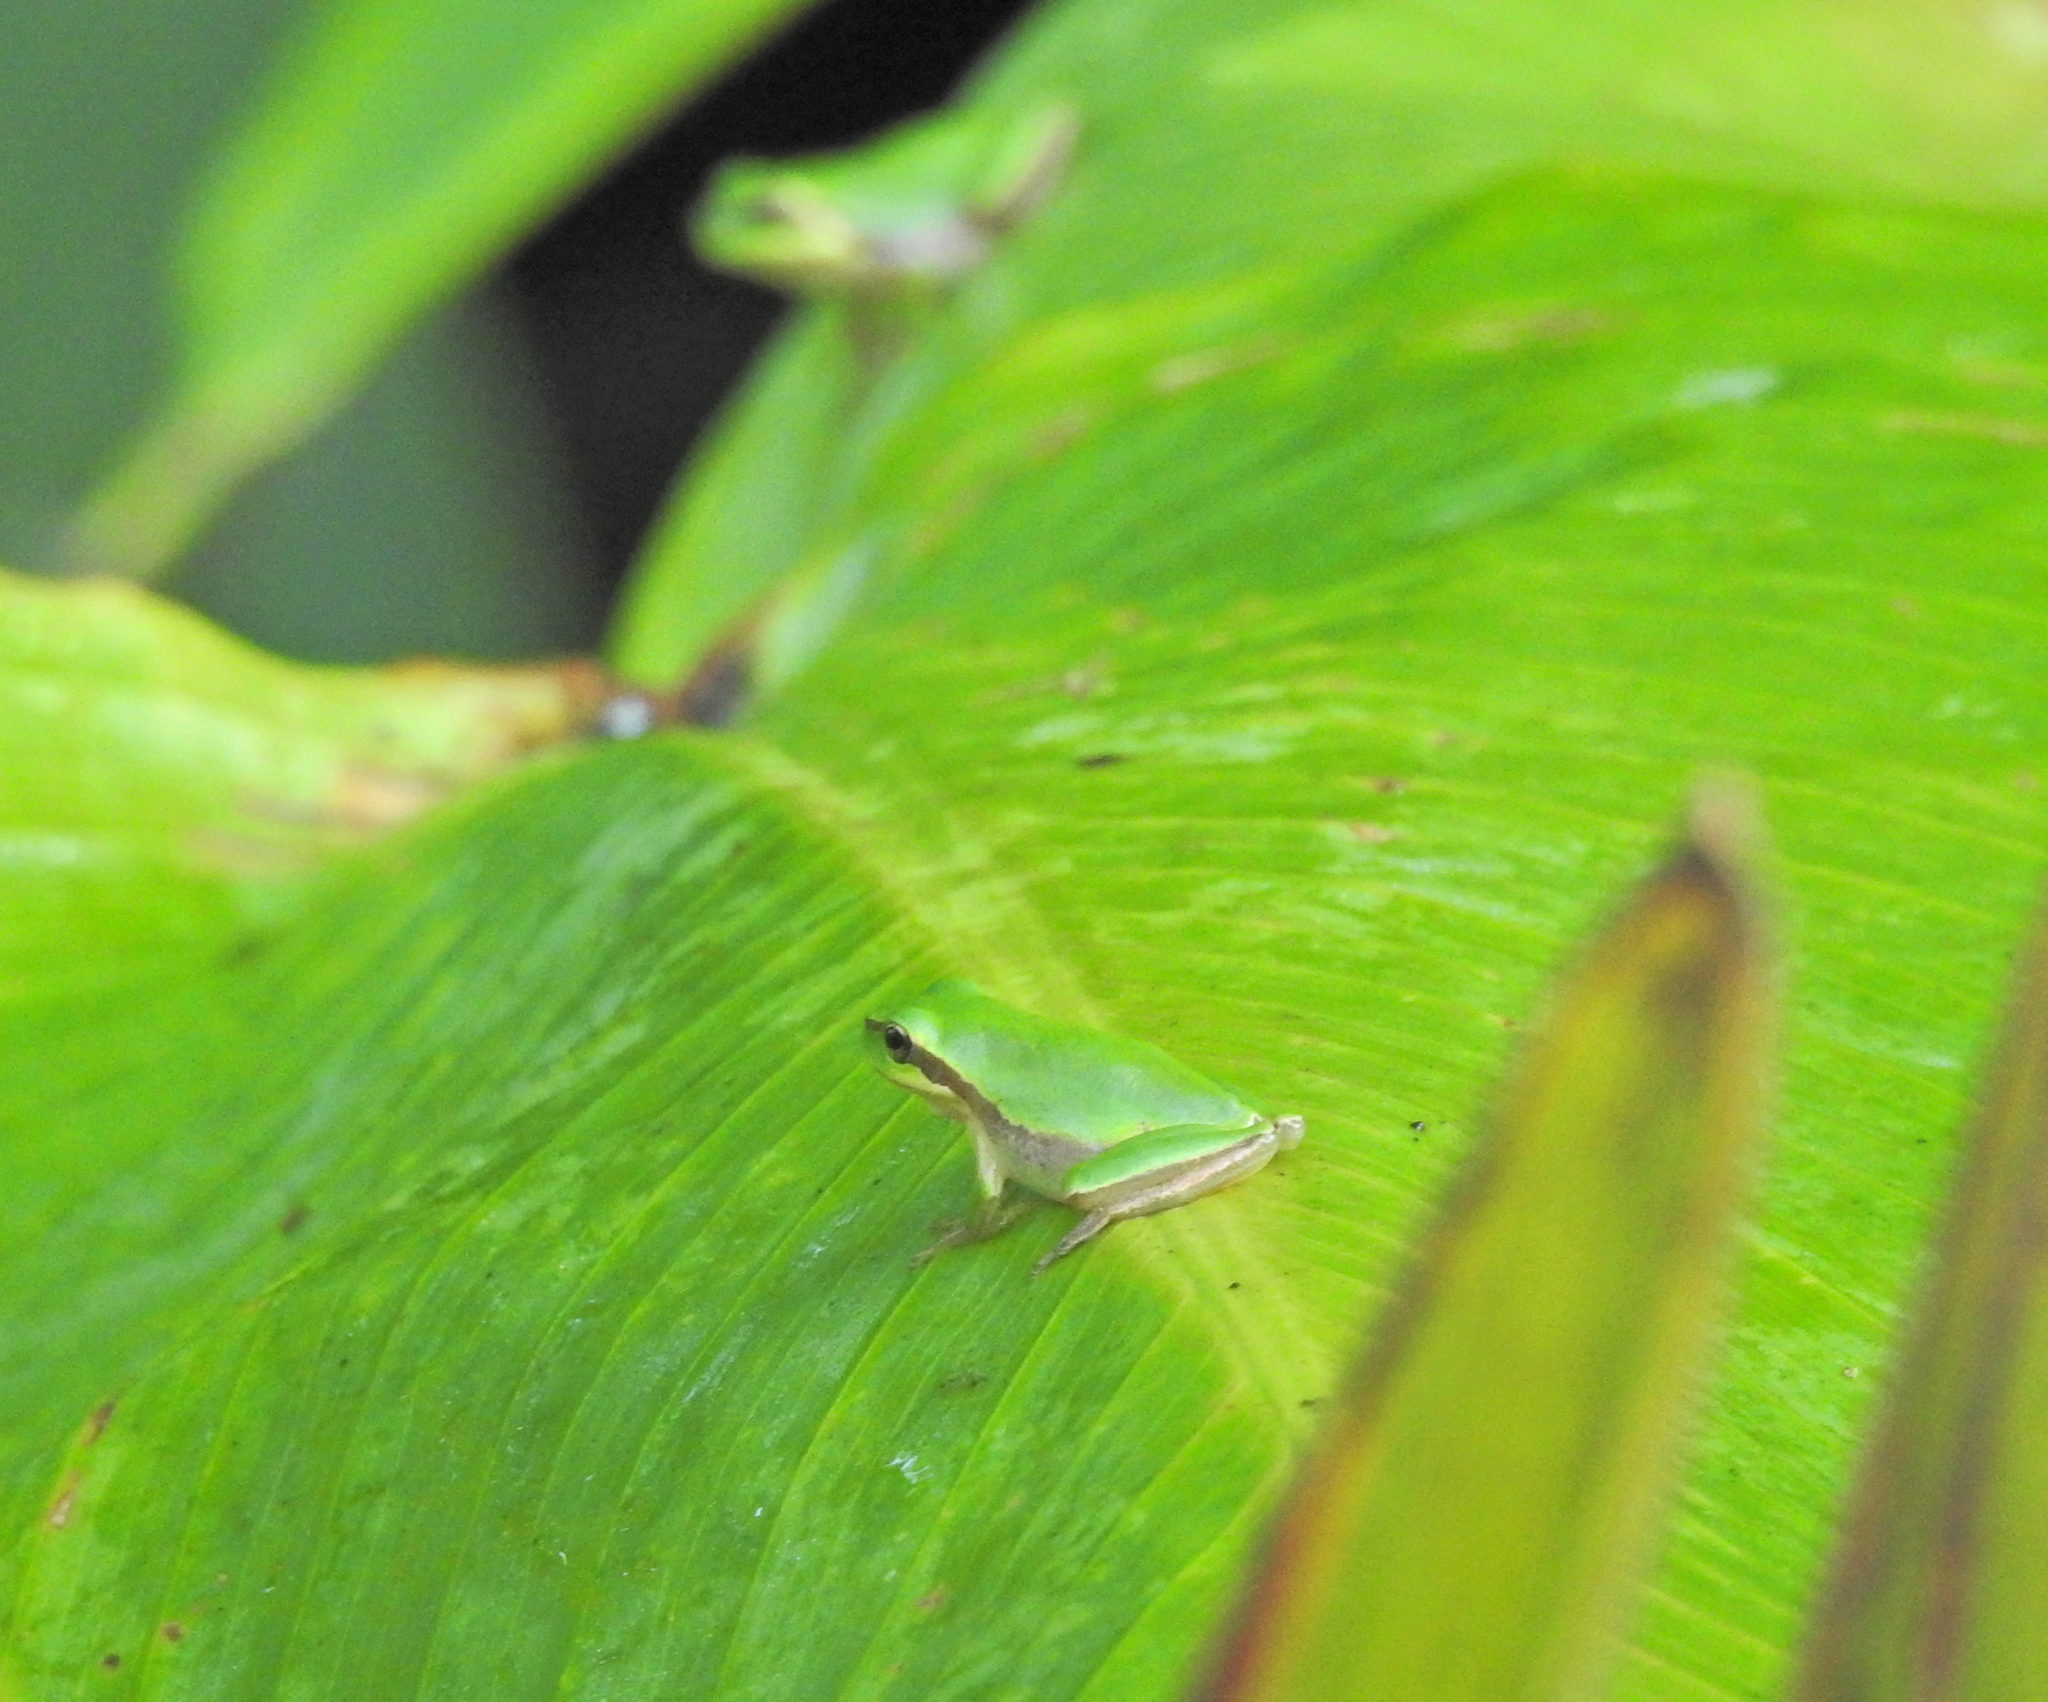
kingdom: Animalia
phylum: Chordata
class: Amphibia
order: Anura
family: Hylidae
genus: Hyla
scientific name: Hyla meridionalis
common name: Stripeless tree frog
